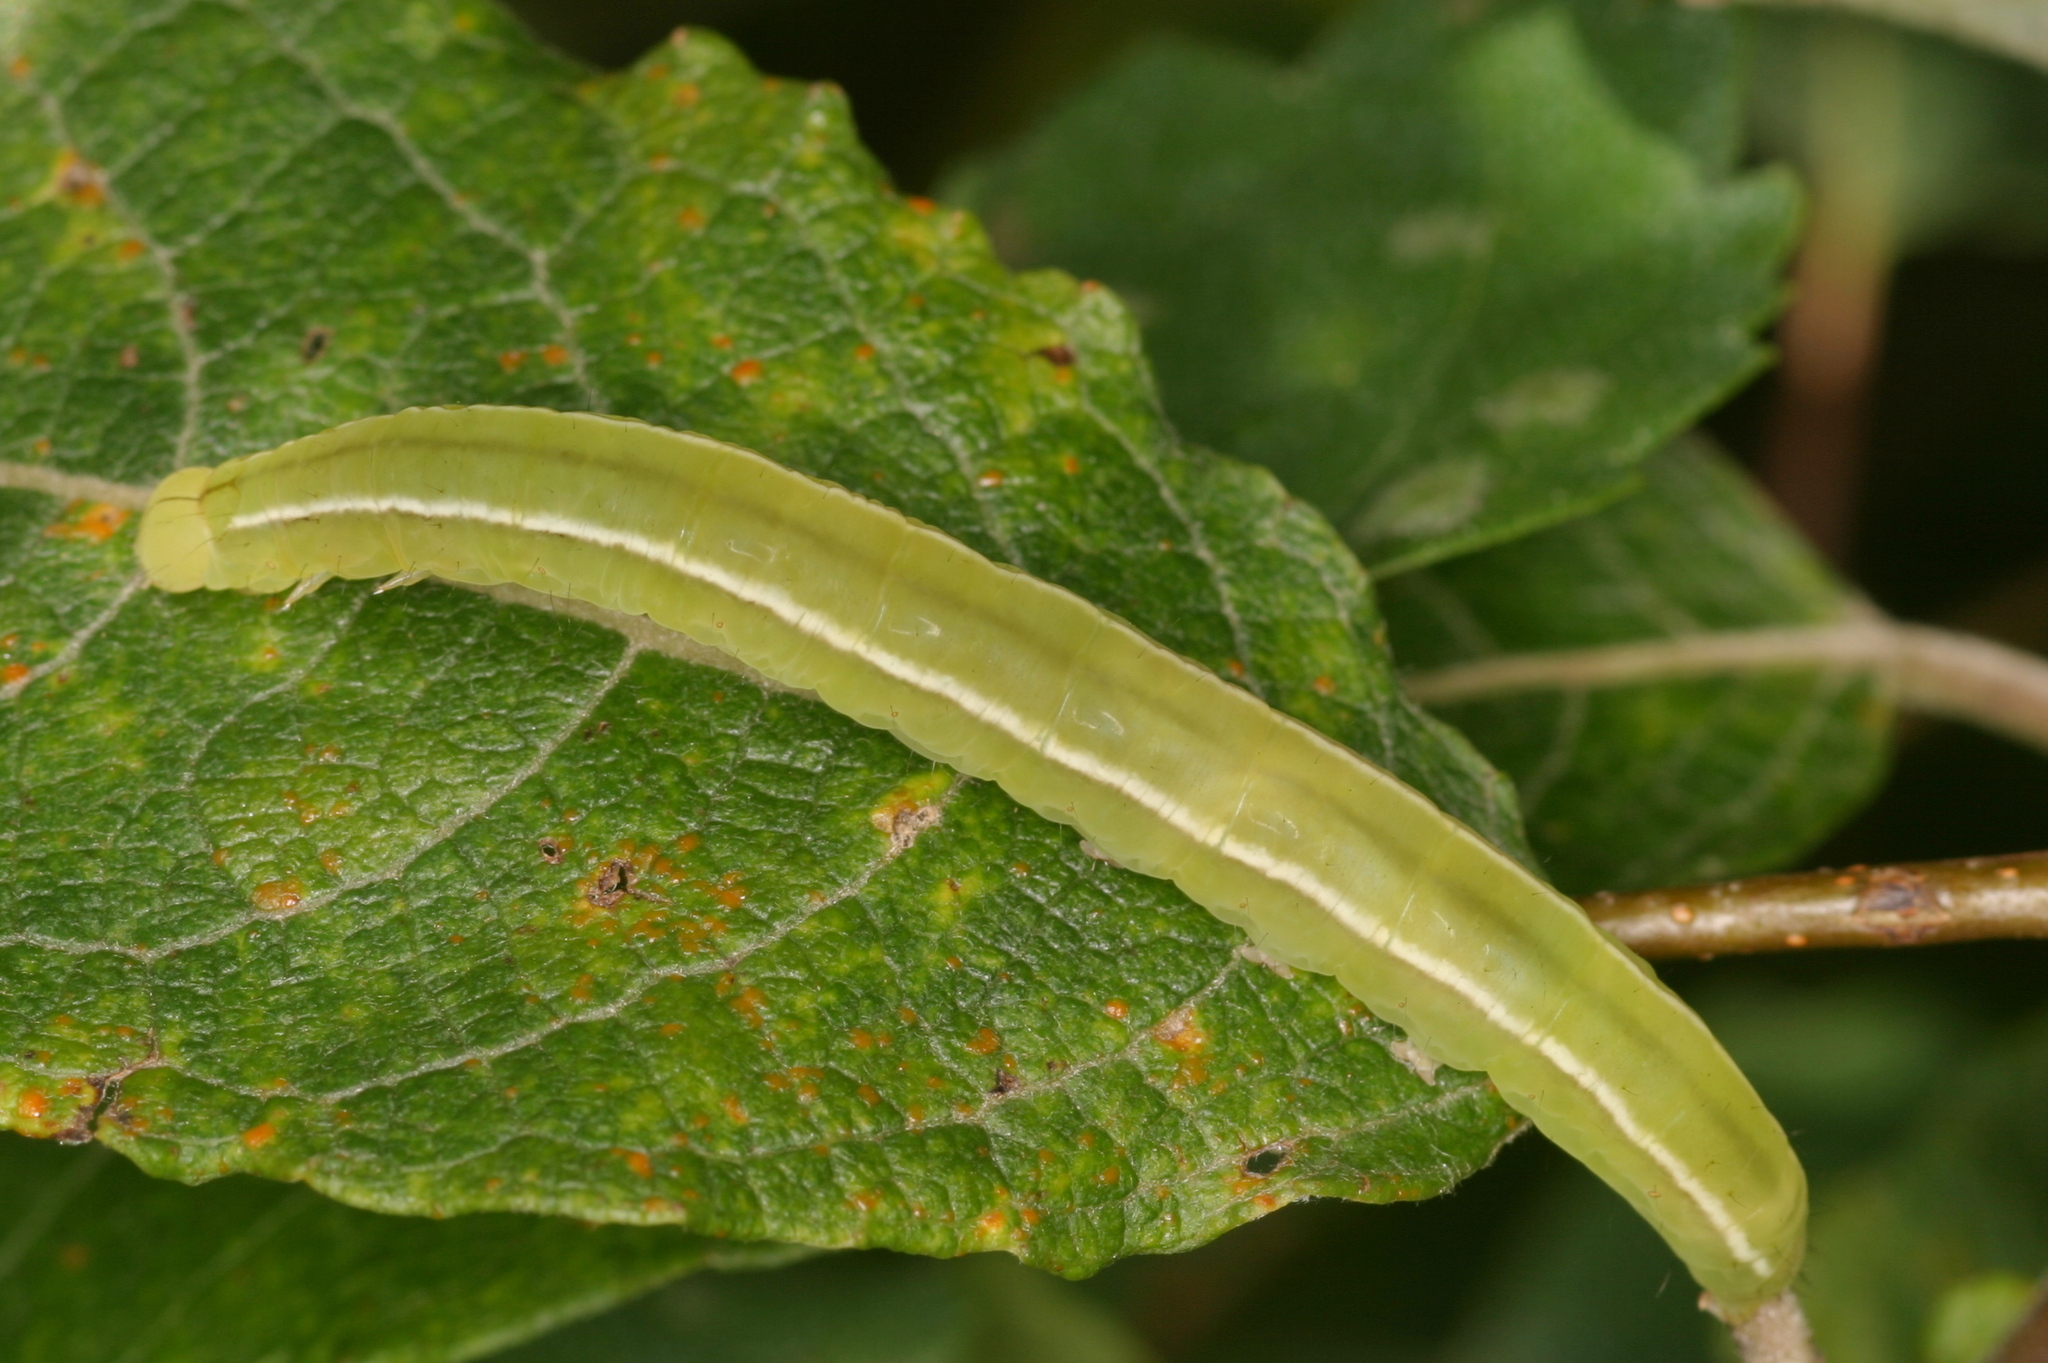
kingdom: Animalia
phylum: Arthropoda
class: Insecta
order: Lepidoptera
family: Erebidae
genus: Scoliopteryx
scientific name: Scoliopteryx libatrix
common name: Herald
